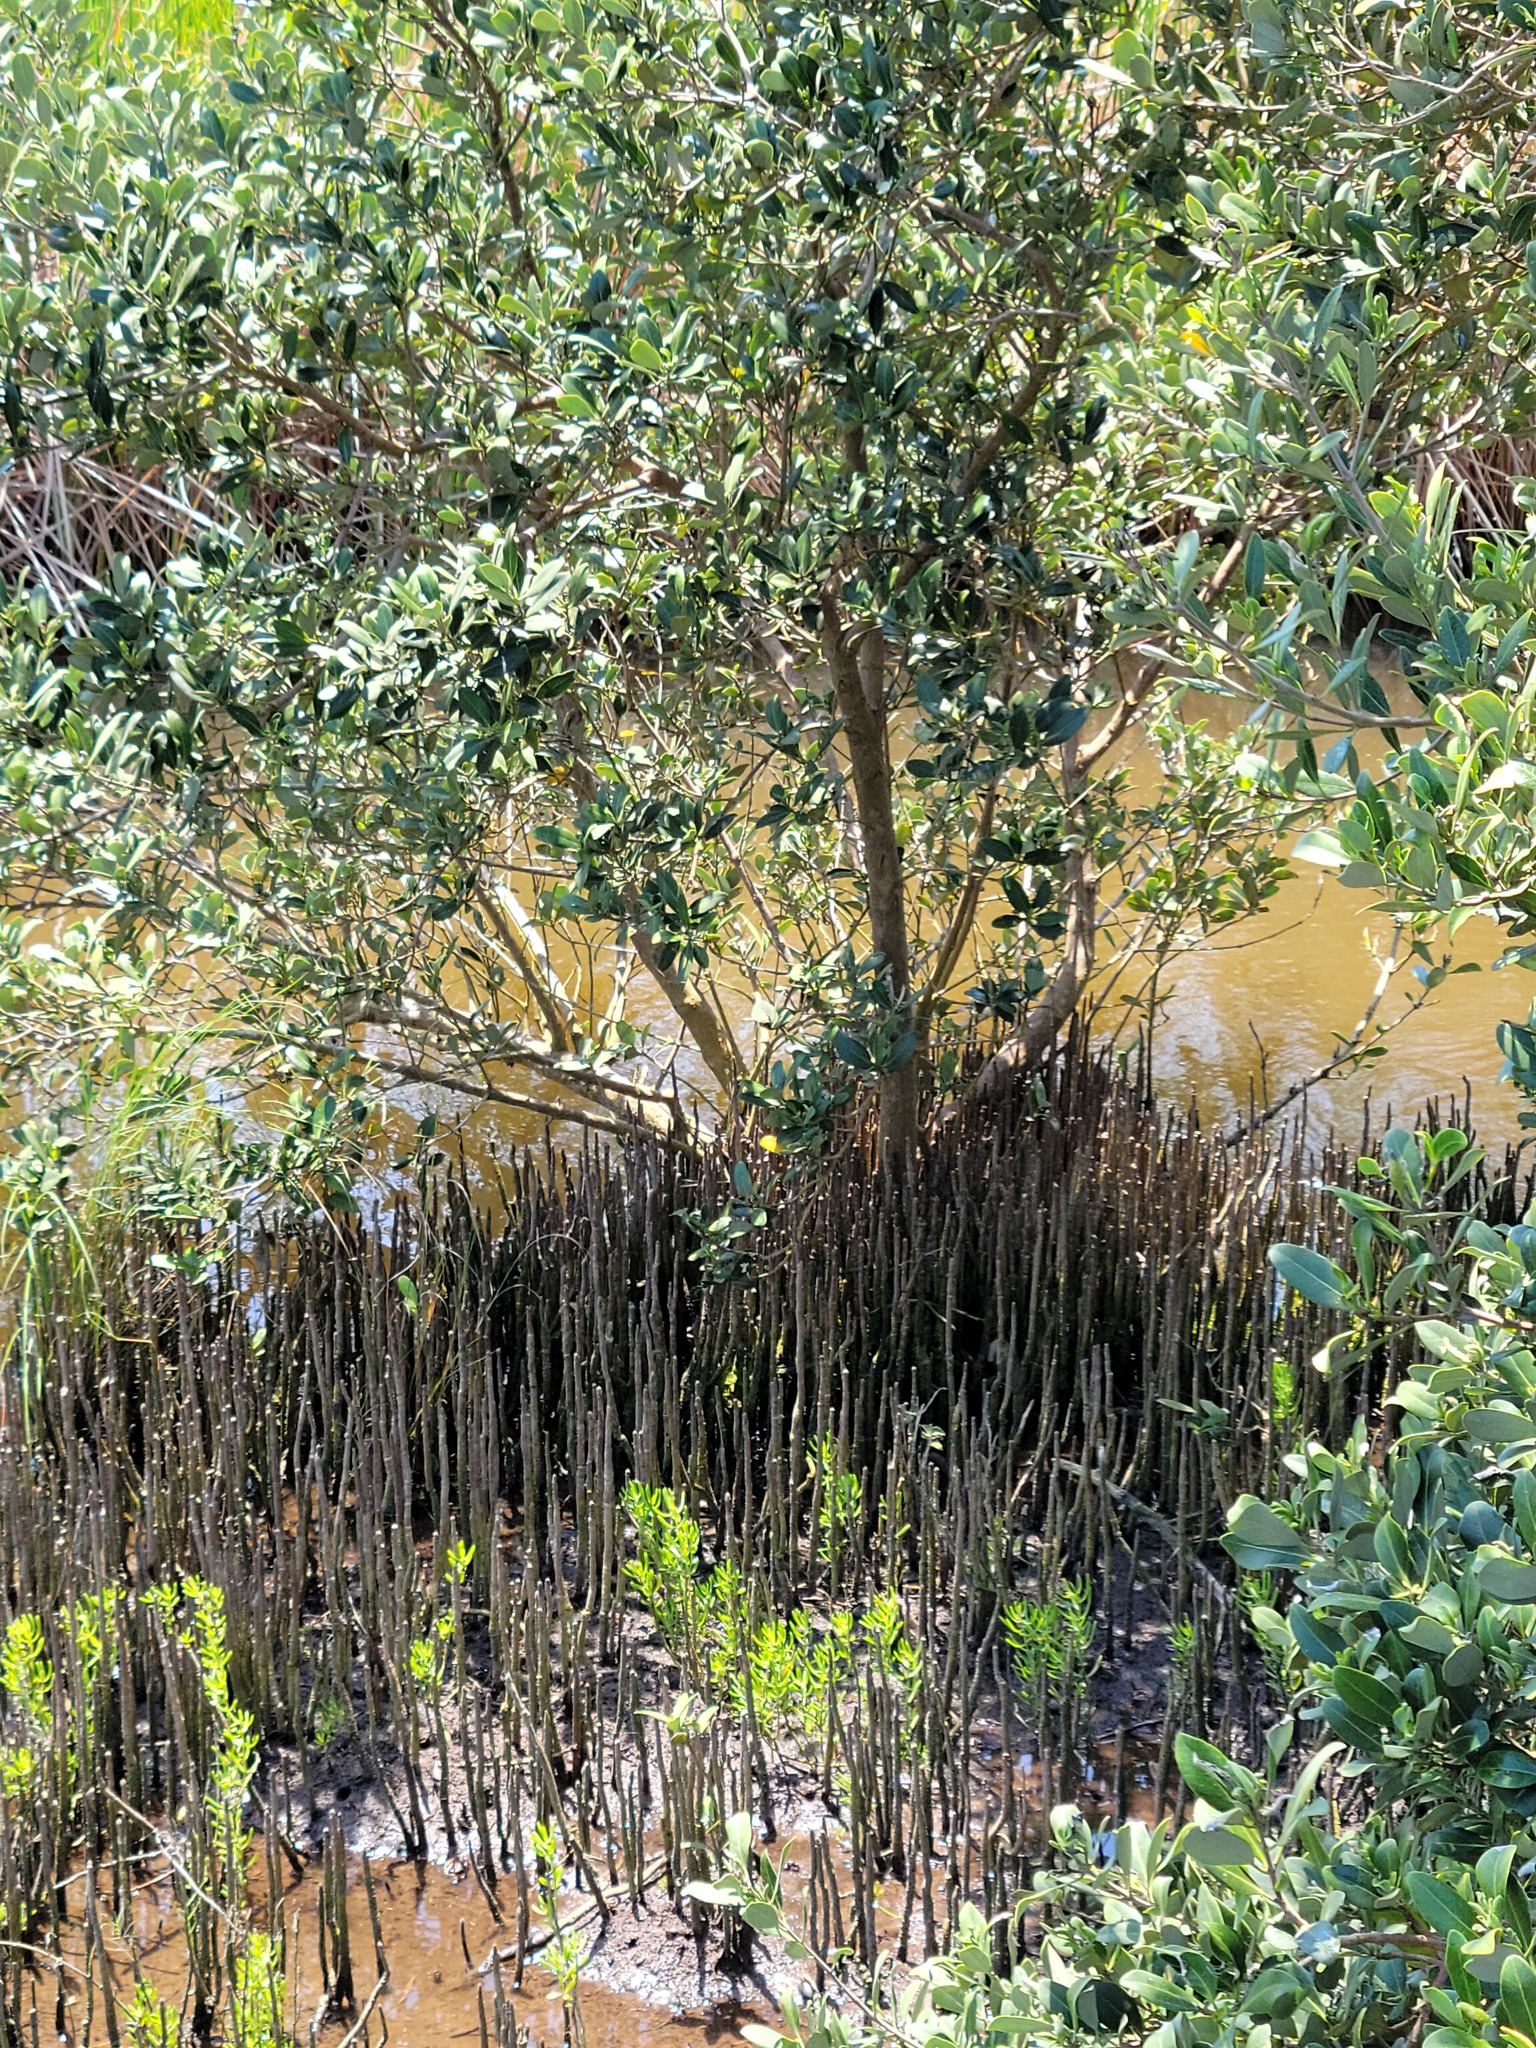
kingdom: Plantae
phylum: Tracheophyta
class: Magnoliopsida
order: Lamiales
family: Acanthaceae
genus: Avicennia
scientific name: Avicennia germinans
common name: Black mangrove
